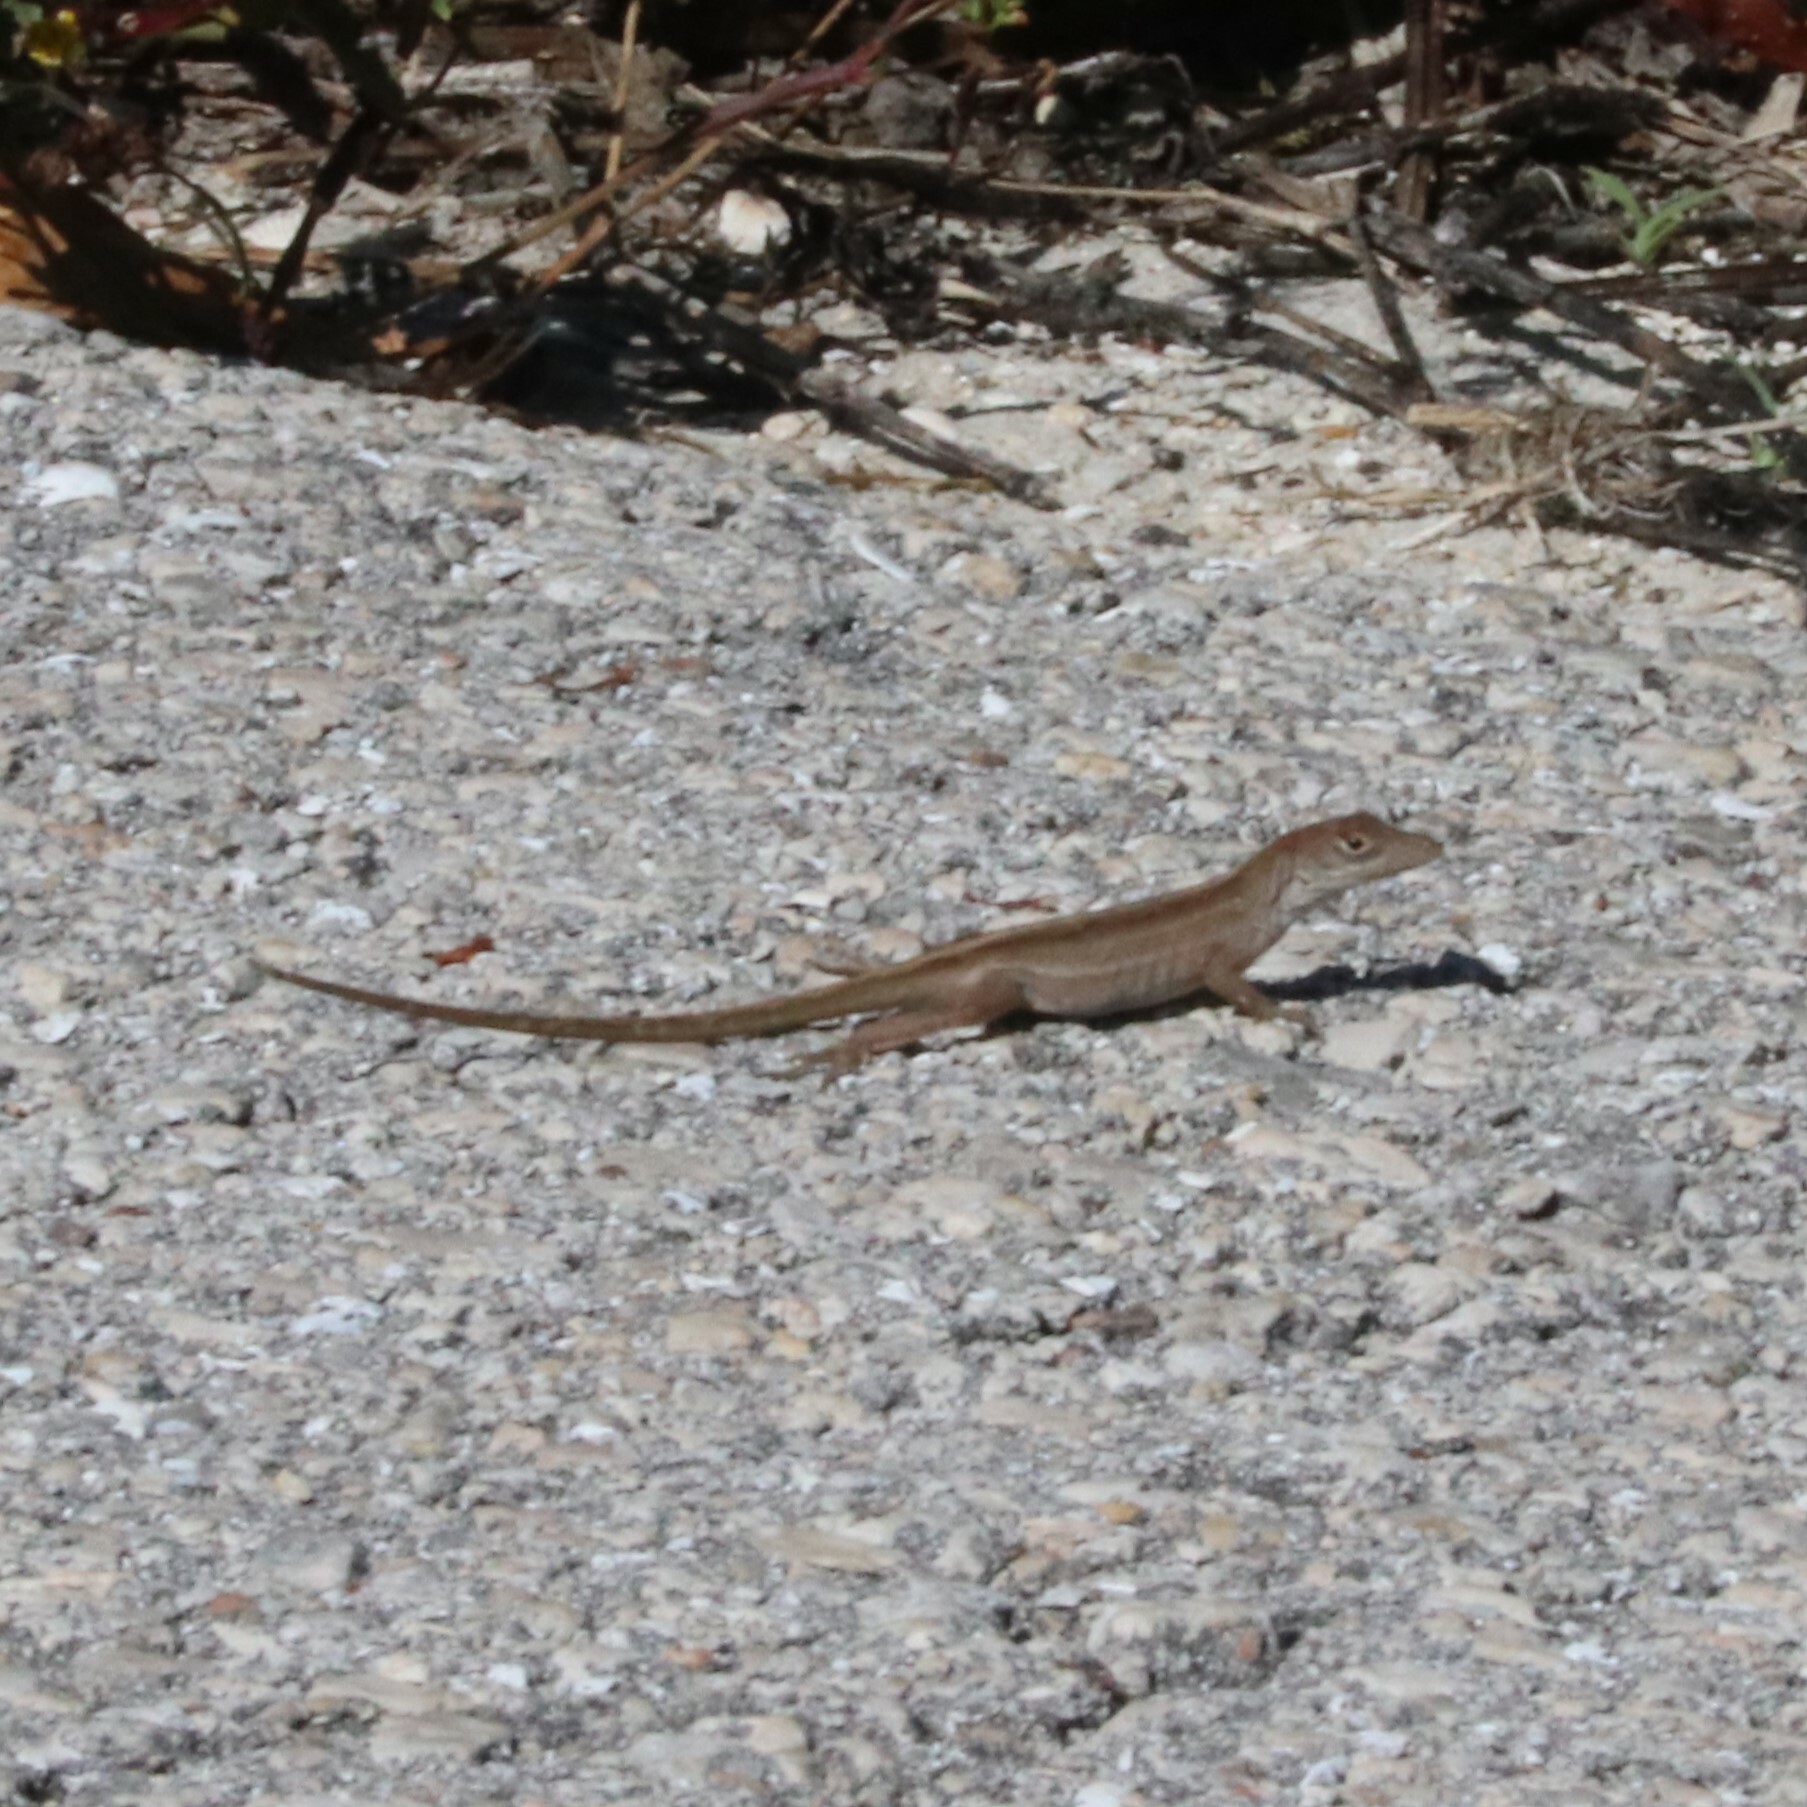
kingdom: Animalia
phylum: Chordata
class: Squamata
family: Dactyloidae
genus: Anolis
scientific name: Anolis sagrei
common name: Brown anole
